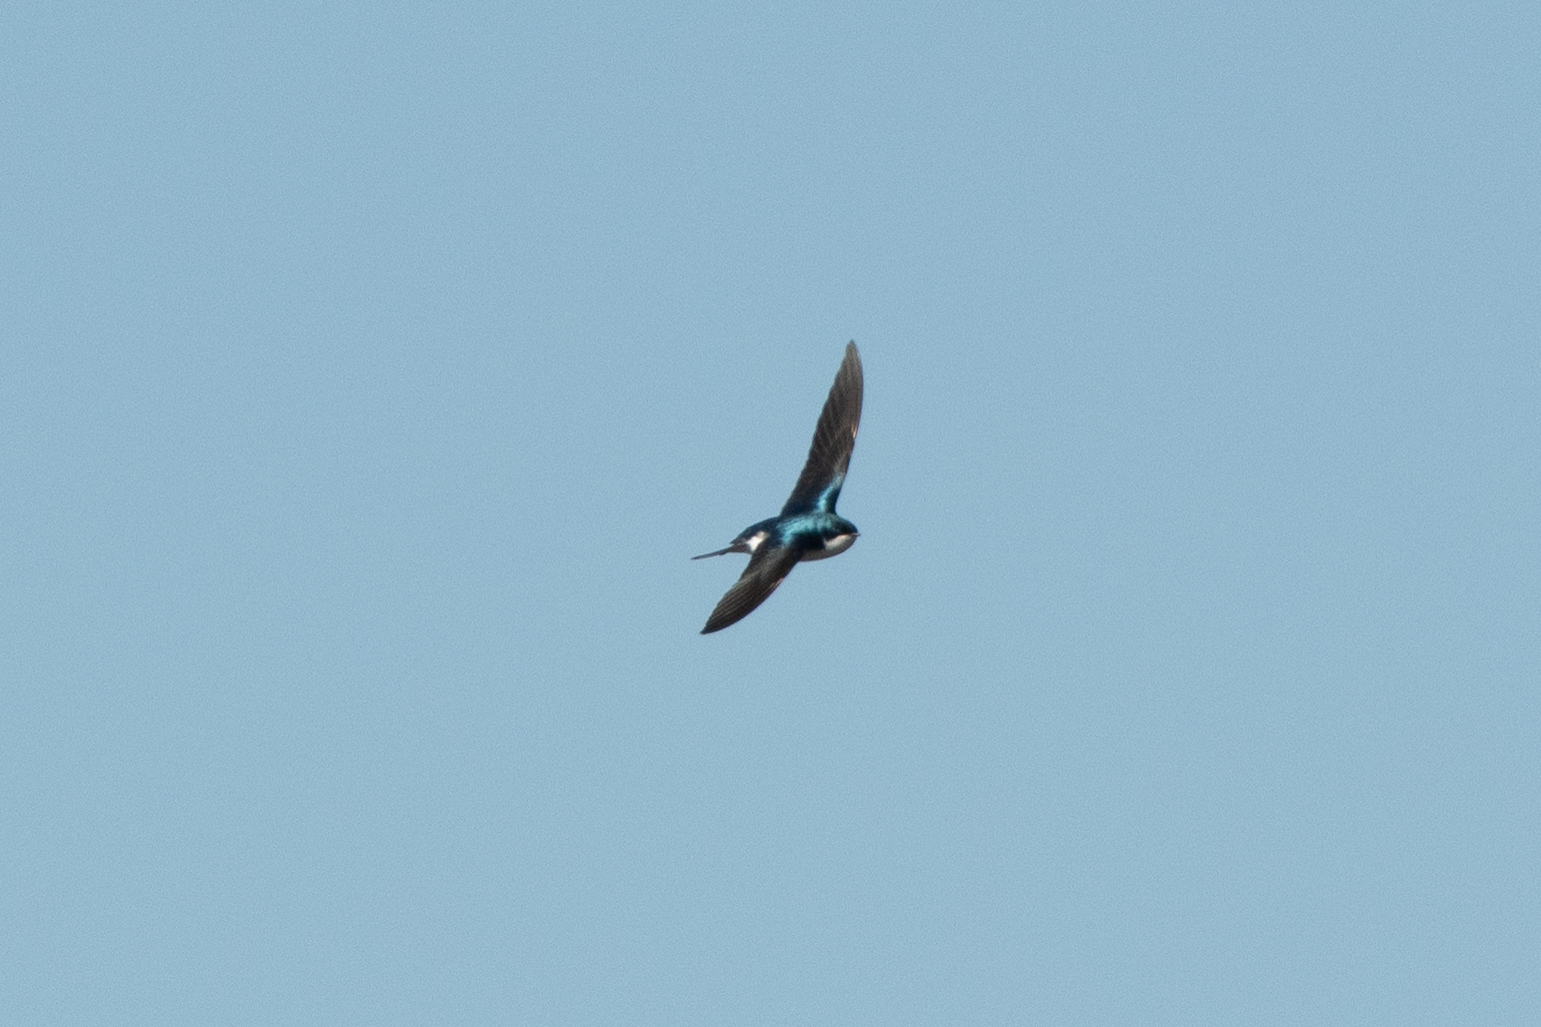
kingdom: Animalia
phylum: Chordata
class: Aves
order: Passeriformes
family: Hirundinidae
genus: Tachycineta
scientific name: Tachycineta bicolor
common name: Tree swallow
